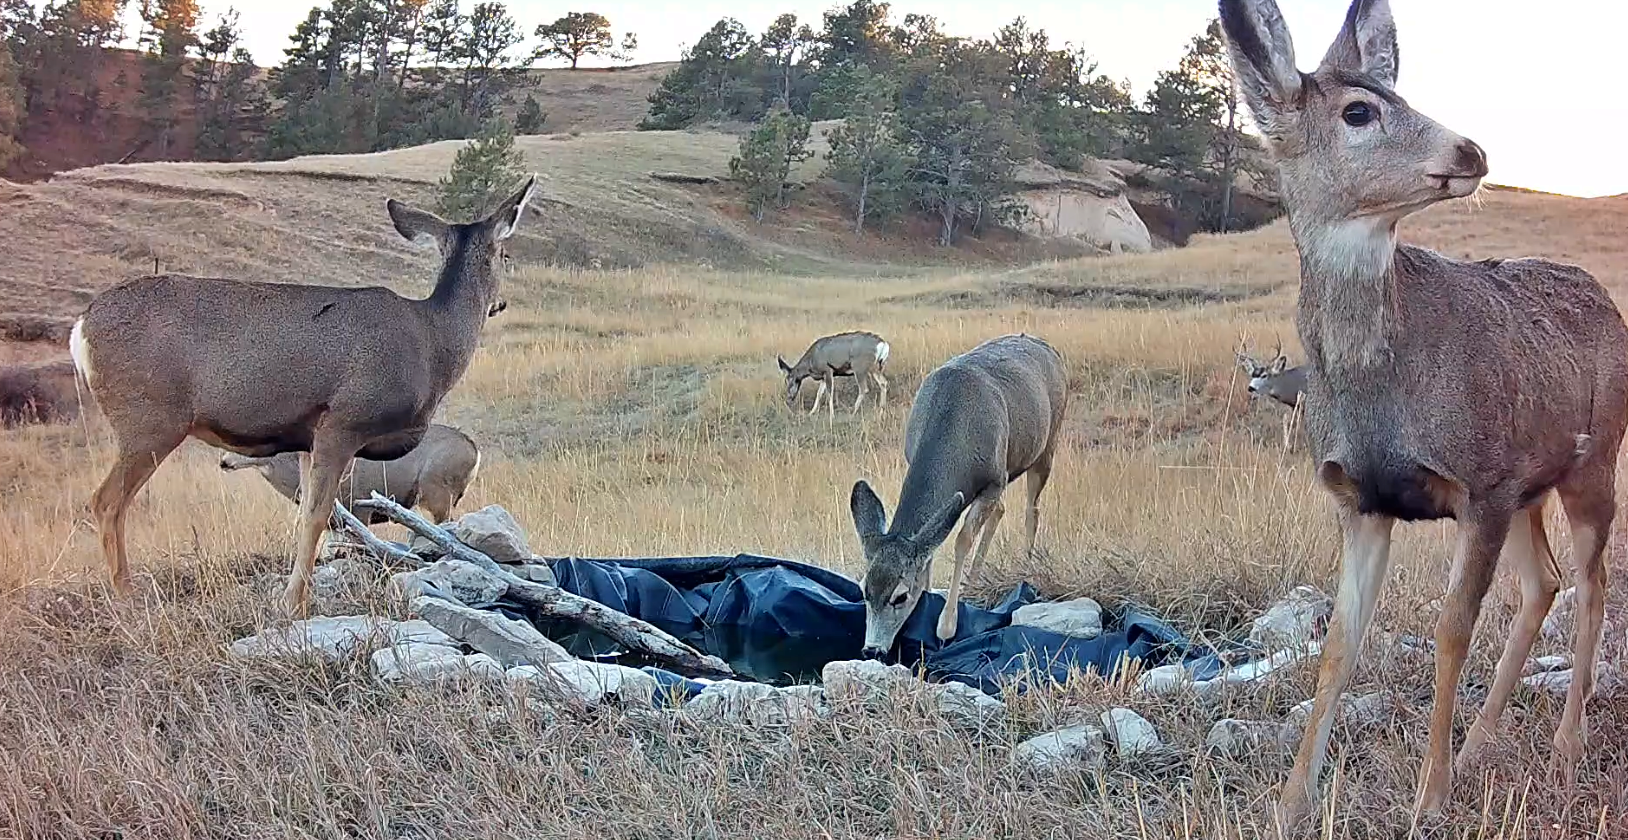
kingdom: Animalia
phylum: Chordata
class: Mammalia
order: Artiodactyla
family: Cervidae
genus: Odocoileus
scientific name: Odocoileus hemionus
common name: Mule deer
